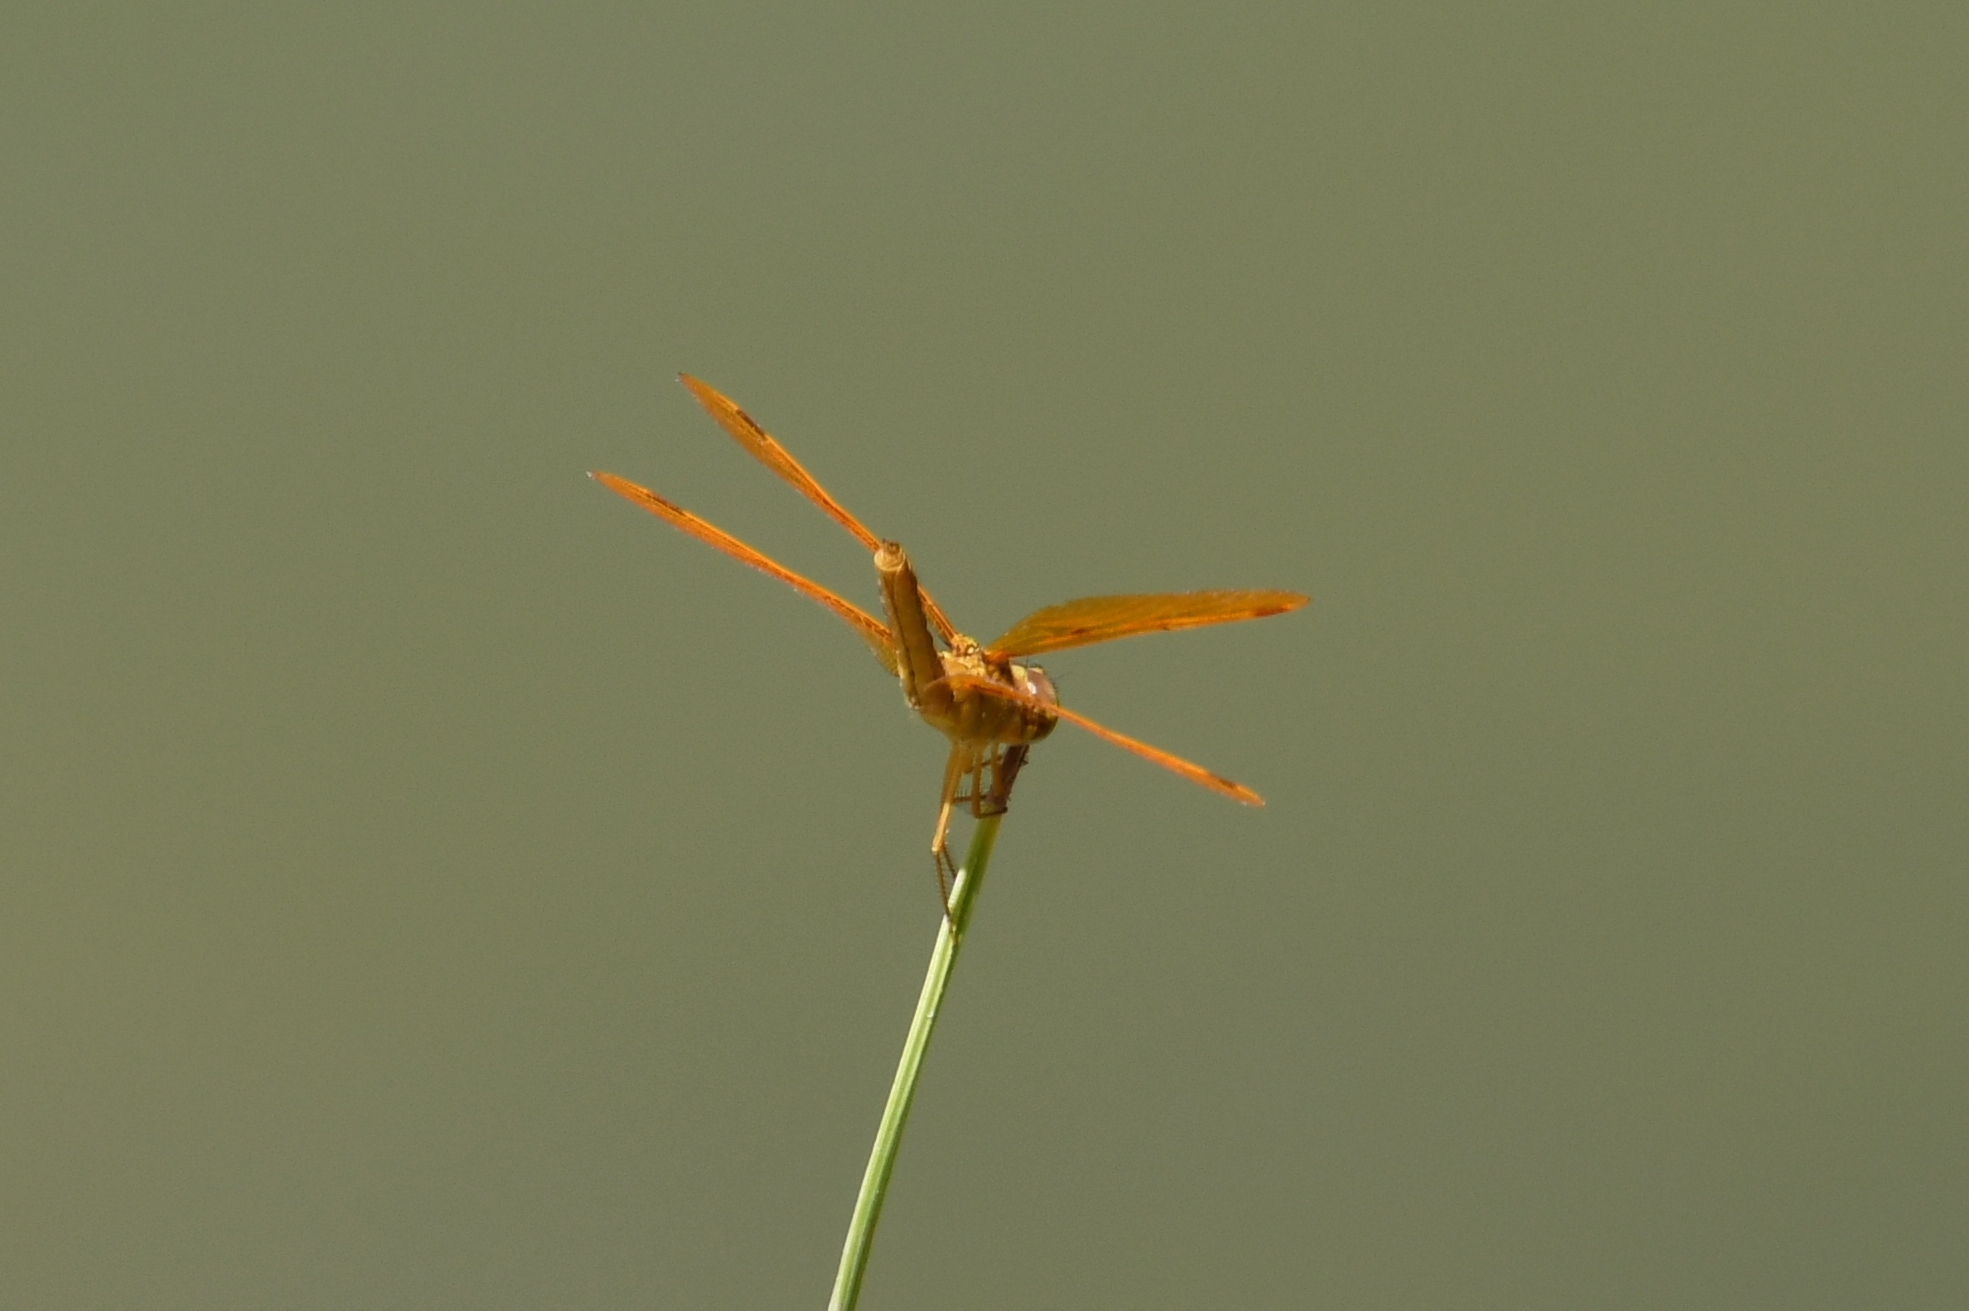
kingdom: Animalia
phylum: Arthropoda
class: Insecta
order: Odonata
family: Libellulidae
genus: Perithemis
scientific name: Perithemis intensa
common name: Mexican amberwing
